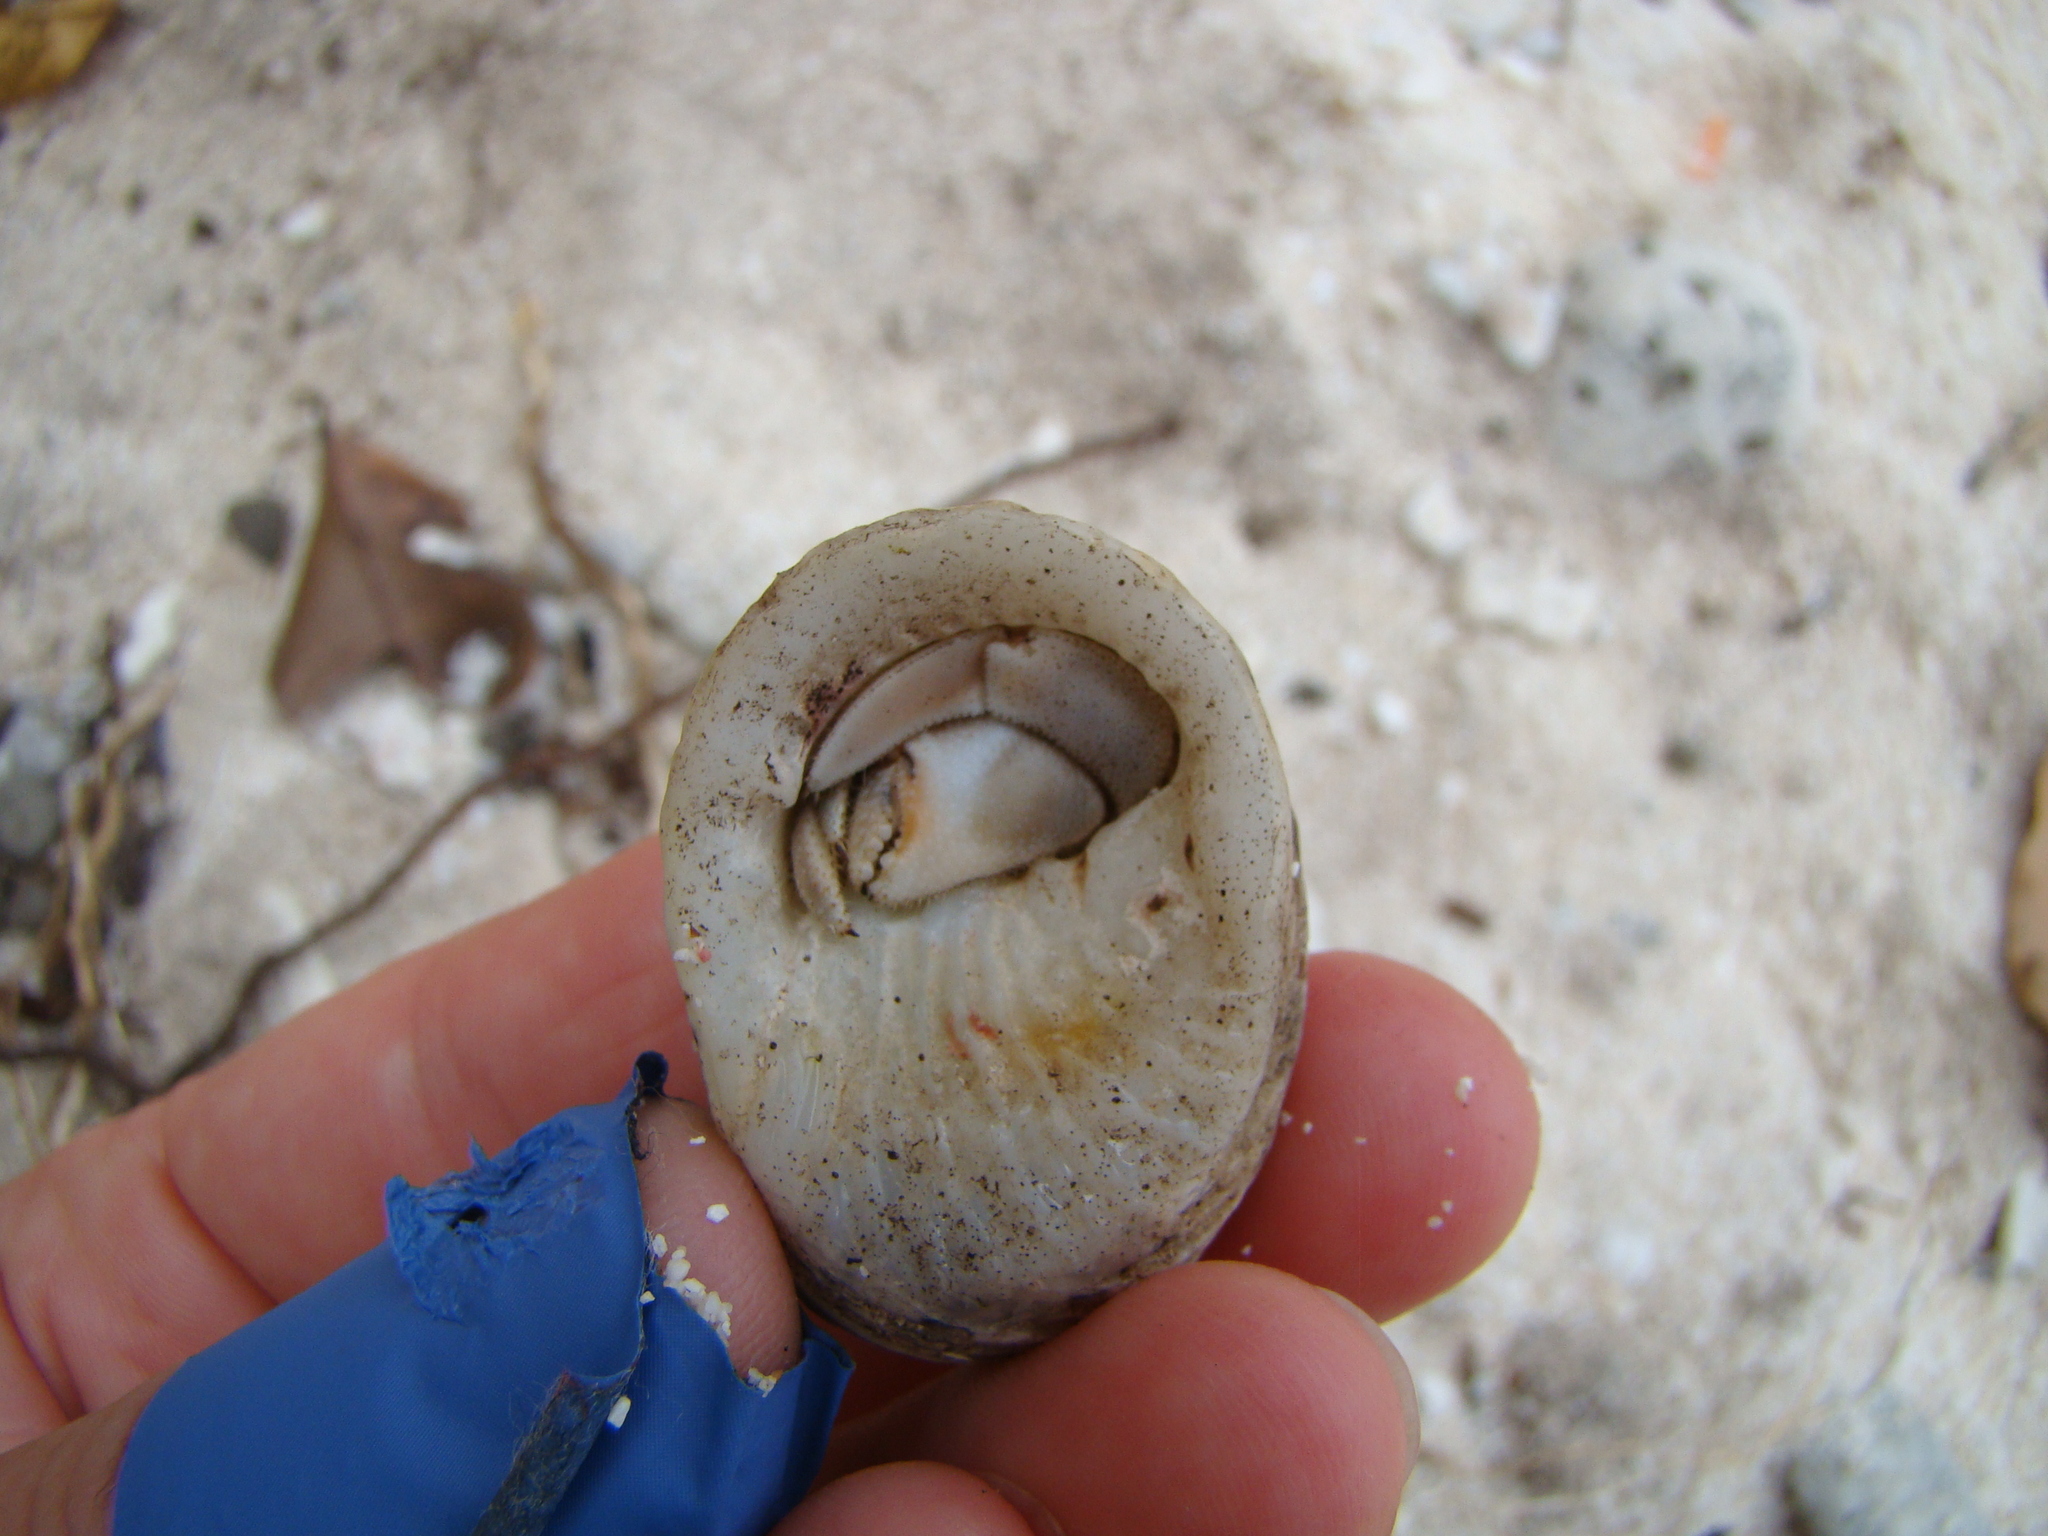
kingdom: Animalia
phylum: Arthropoda
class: Malacostraca
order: Decapoda
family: Coenobitidae
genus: Coenobita
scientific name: Coenobita rugosus
